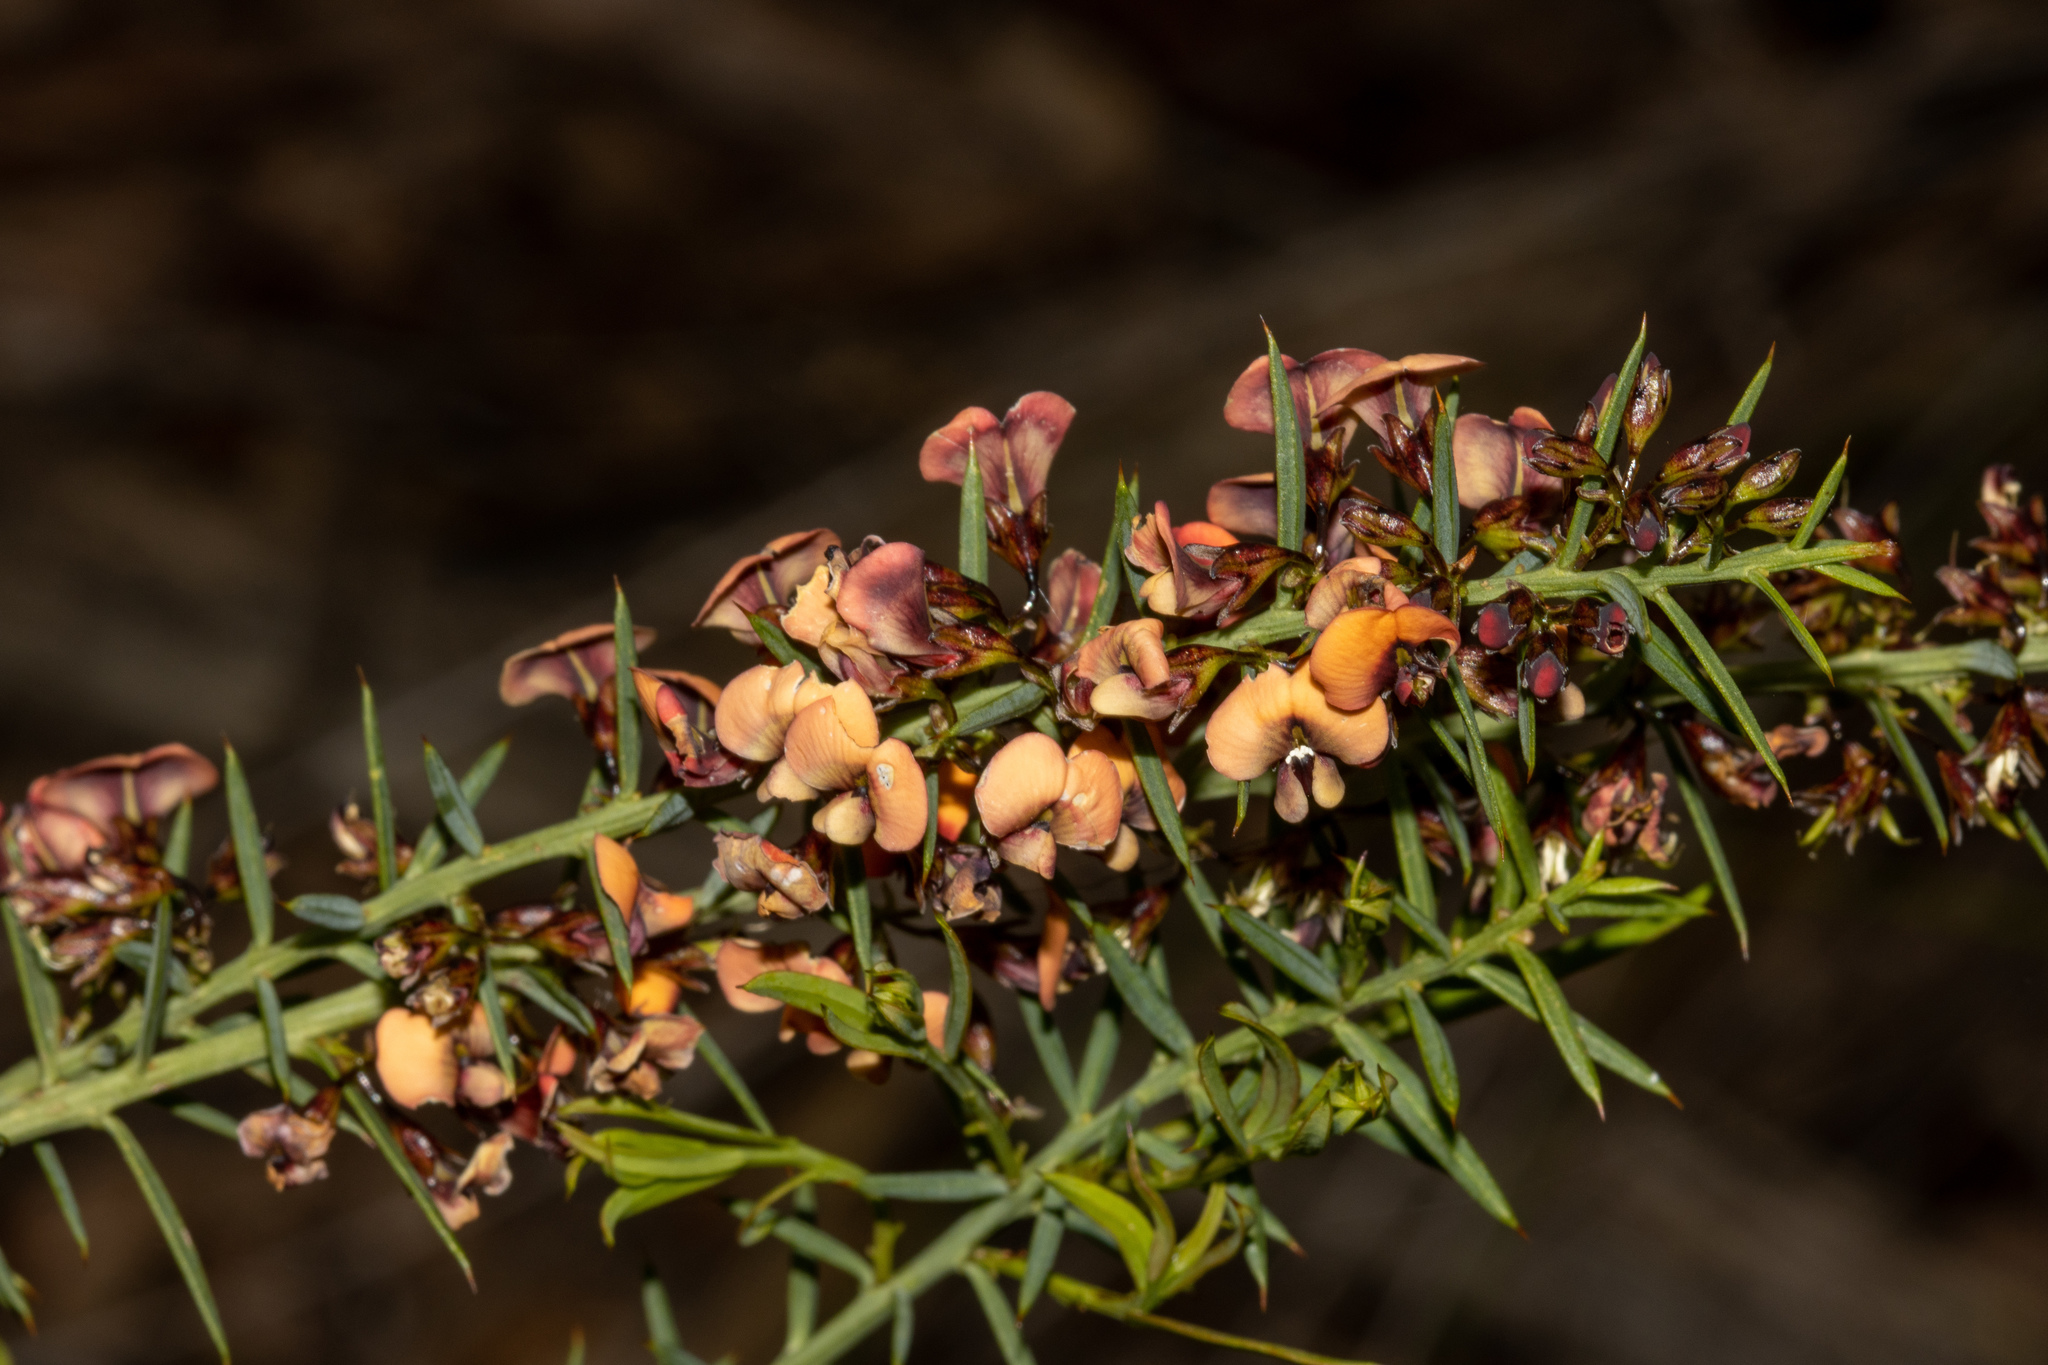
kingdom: Plantae
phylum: Tracheophyta
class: Magnoliopsida
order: Fabales
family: Fabaceae
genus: Daviesia
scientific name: Daviesia ulicifolia
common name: Gorse bitter-pea
